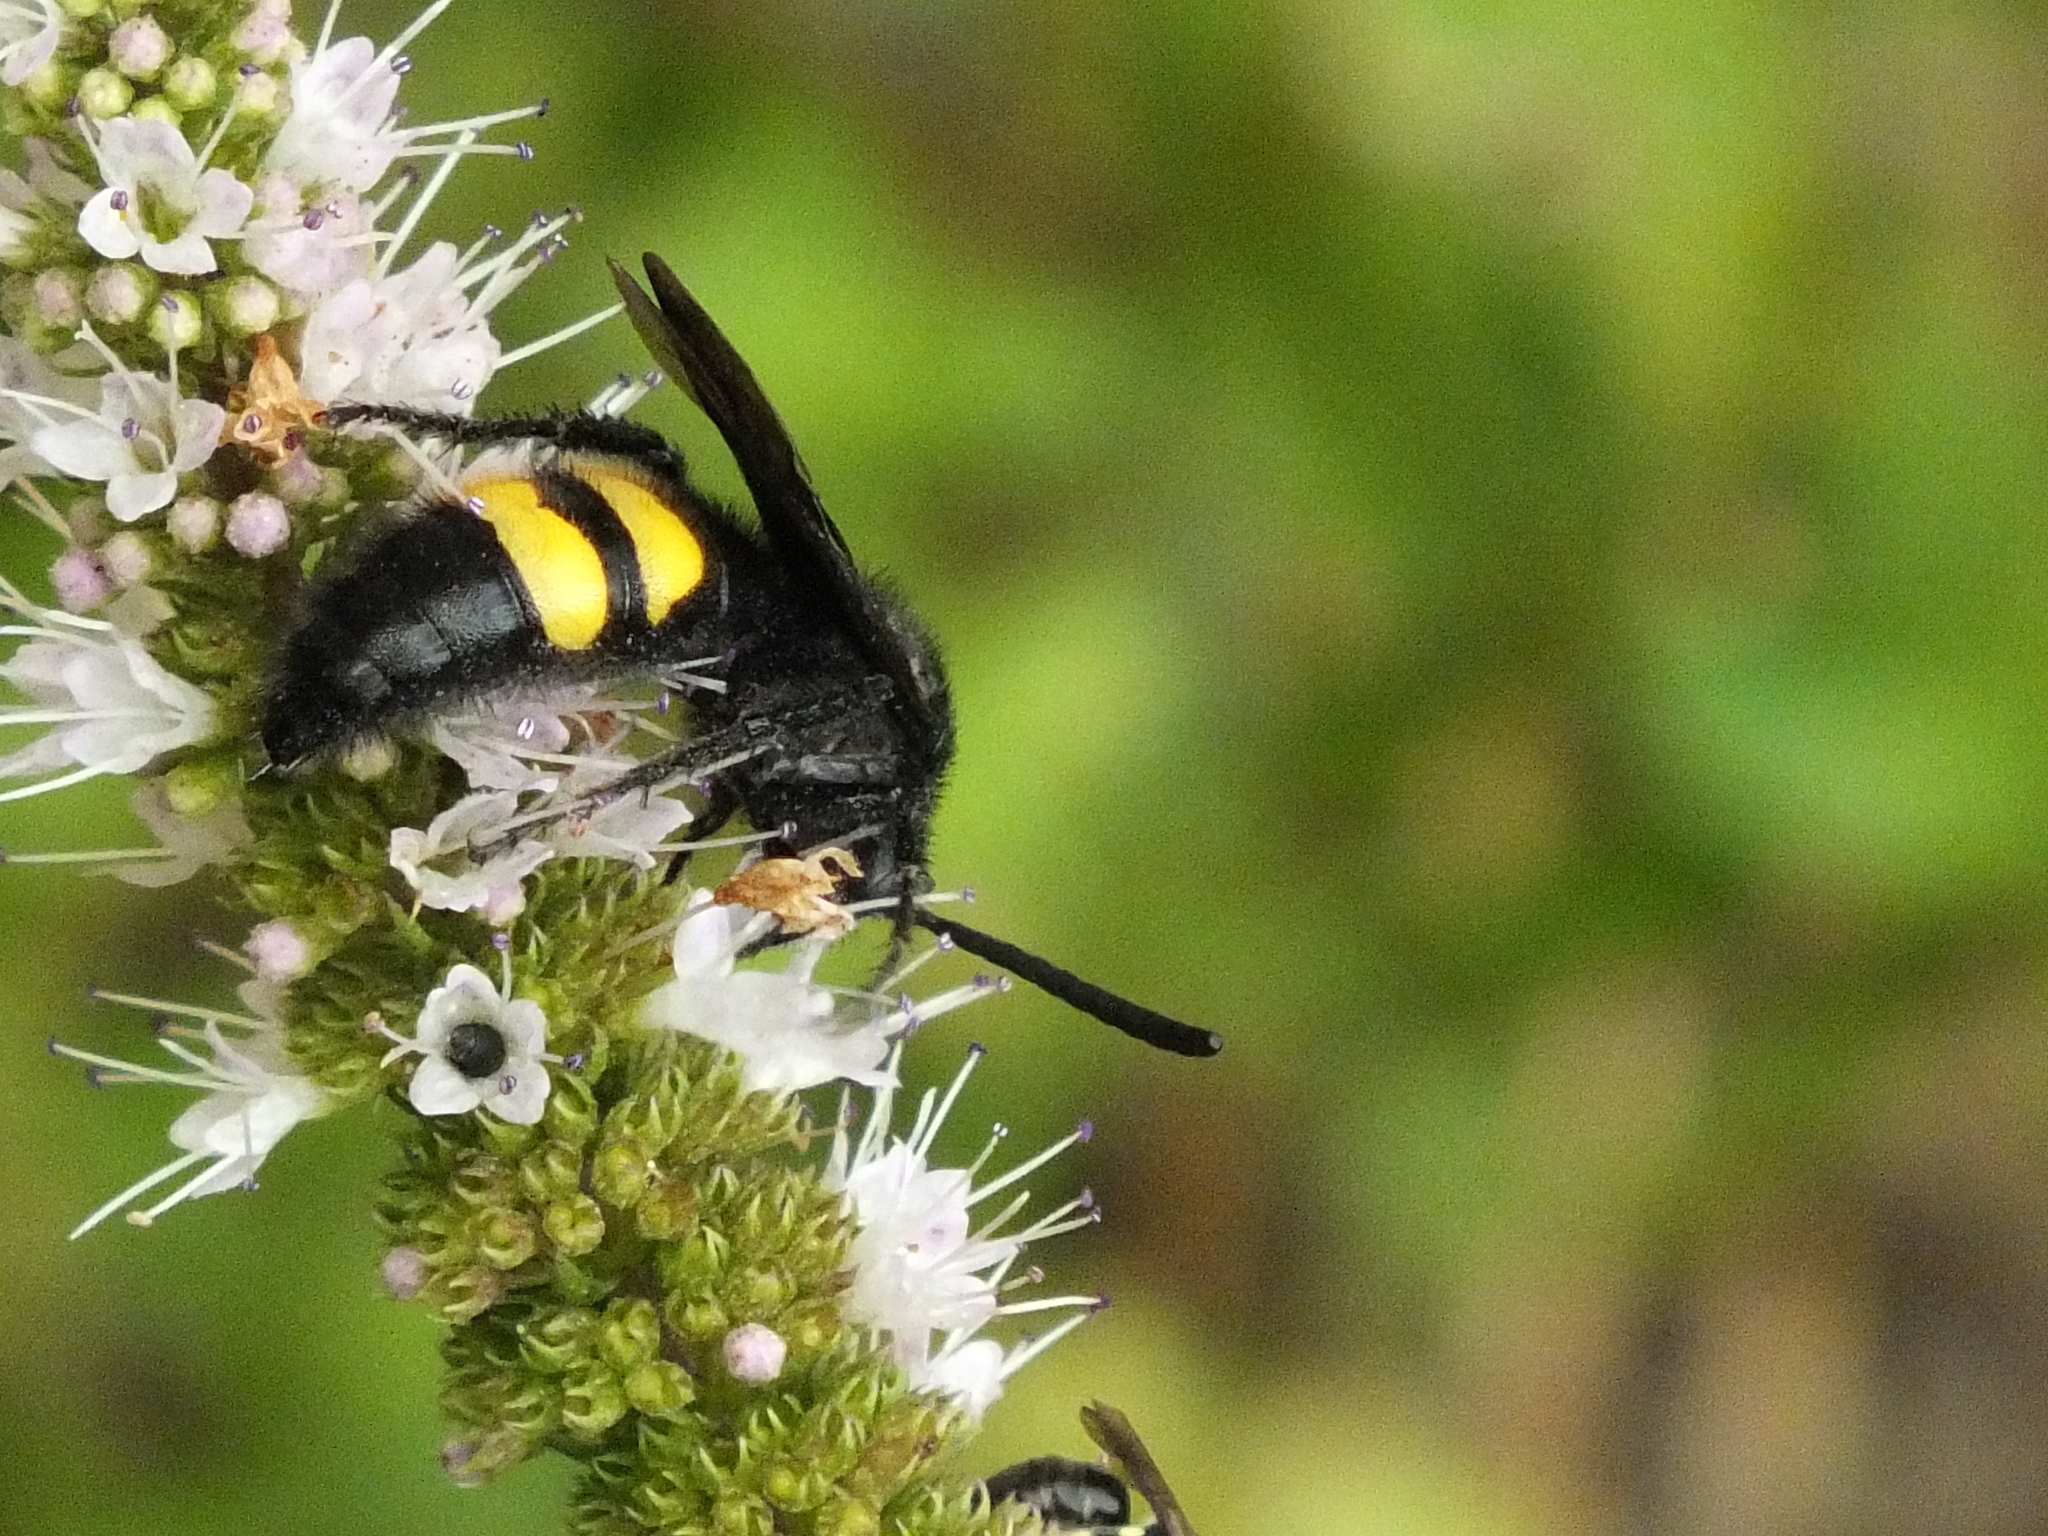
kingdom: Animalia
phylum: Arthropoda
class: Insecta
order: Hymenoptera
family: Scoliidae
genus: Scolia
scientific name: Scolia hirta
